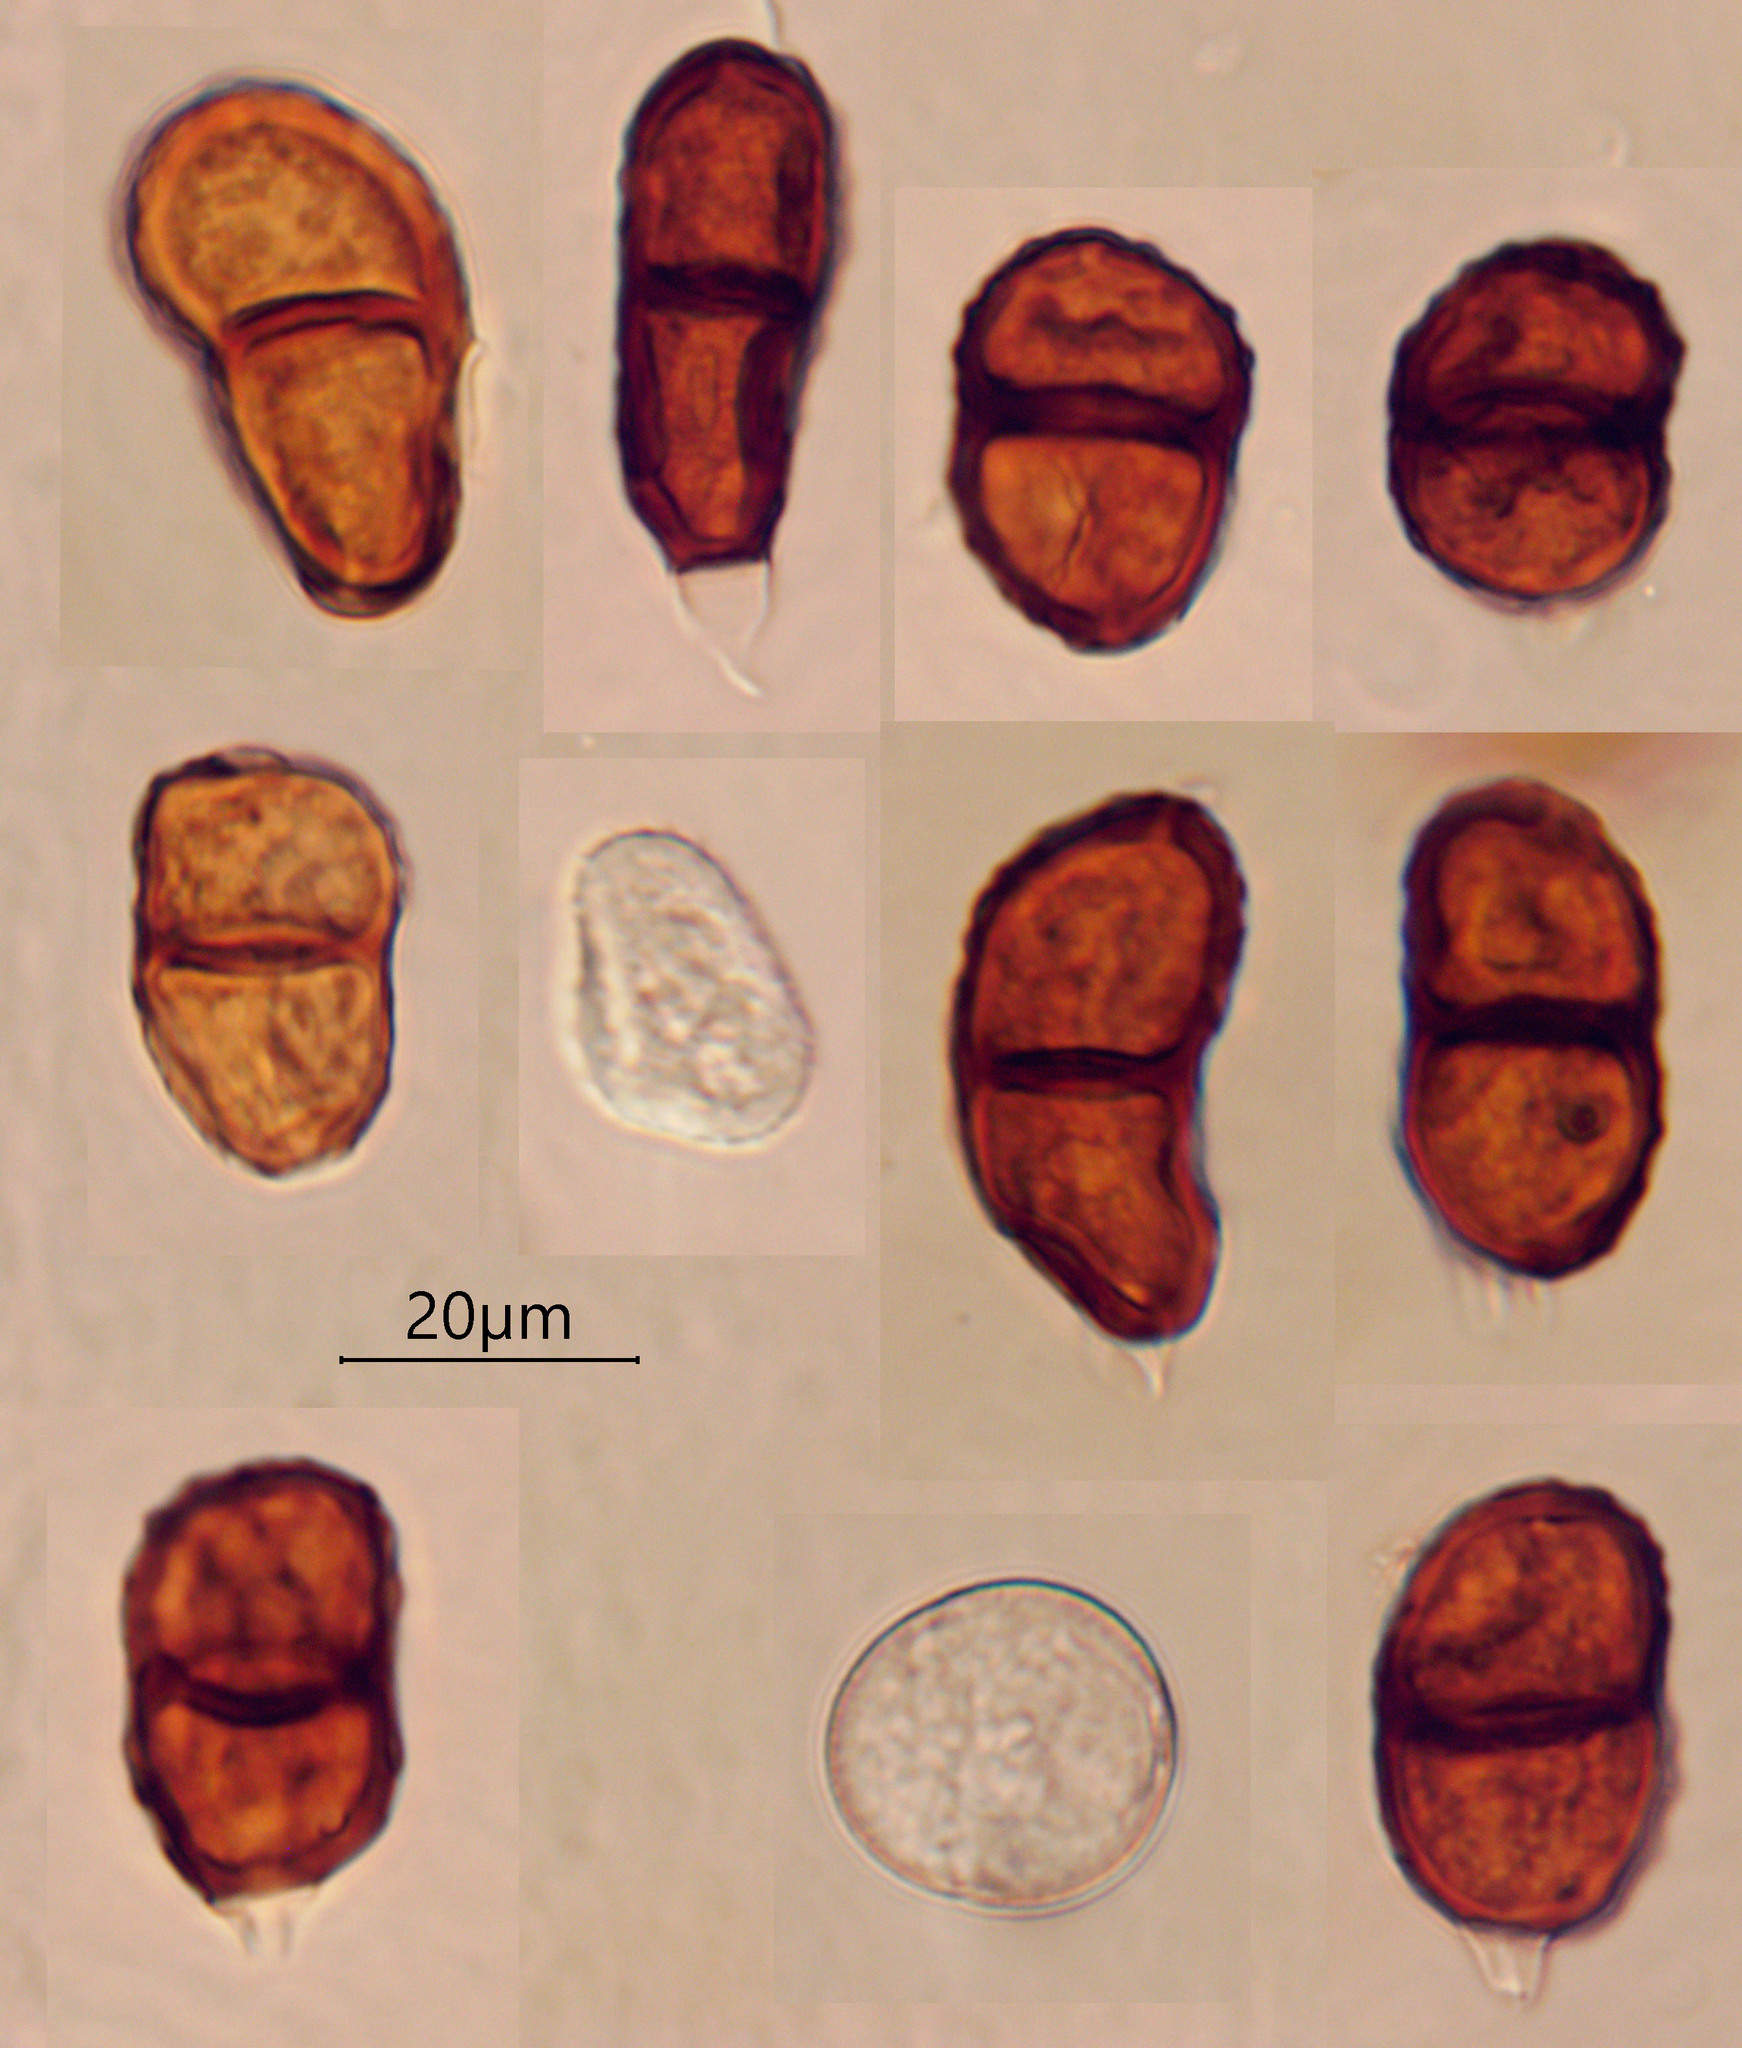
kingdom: Fungi
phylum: Basidiomycota
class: Pucciniomycetes
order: Pucciniales
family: Pucciniaceae
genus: Puccinia
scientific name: Puccinia namua
